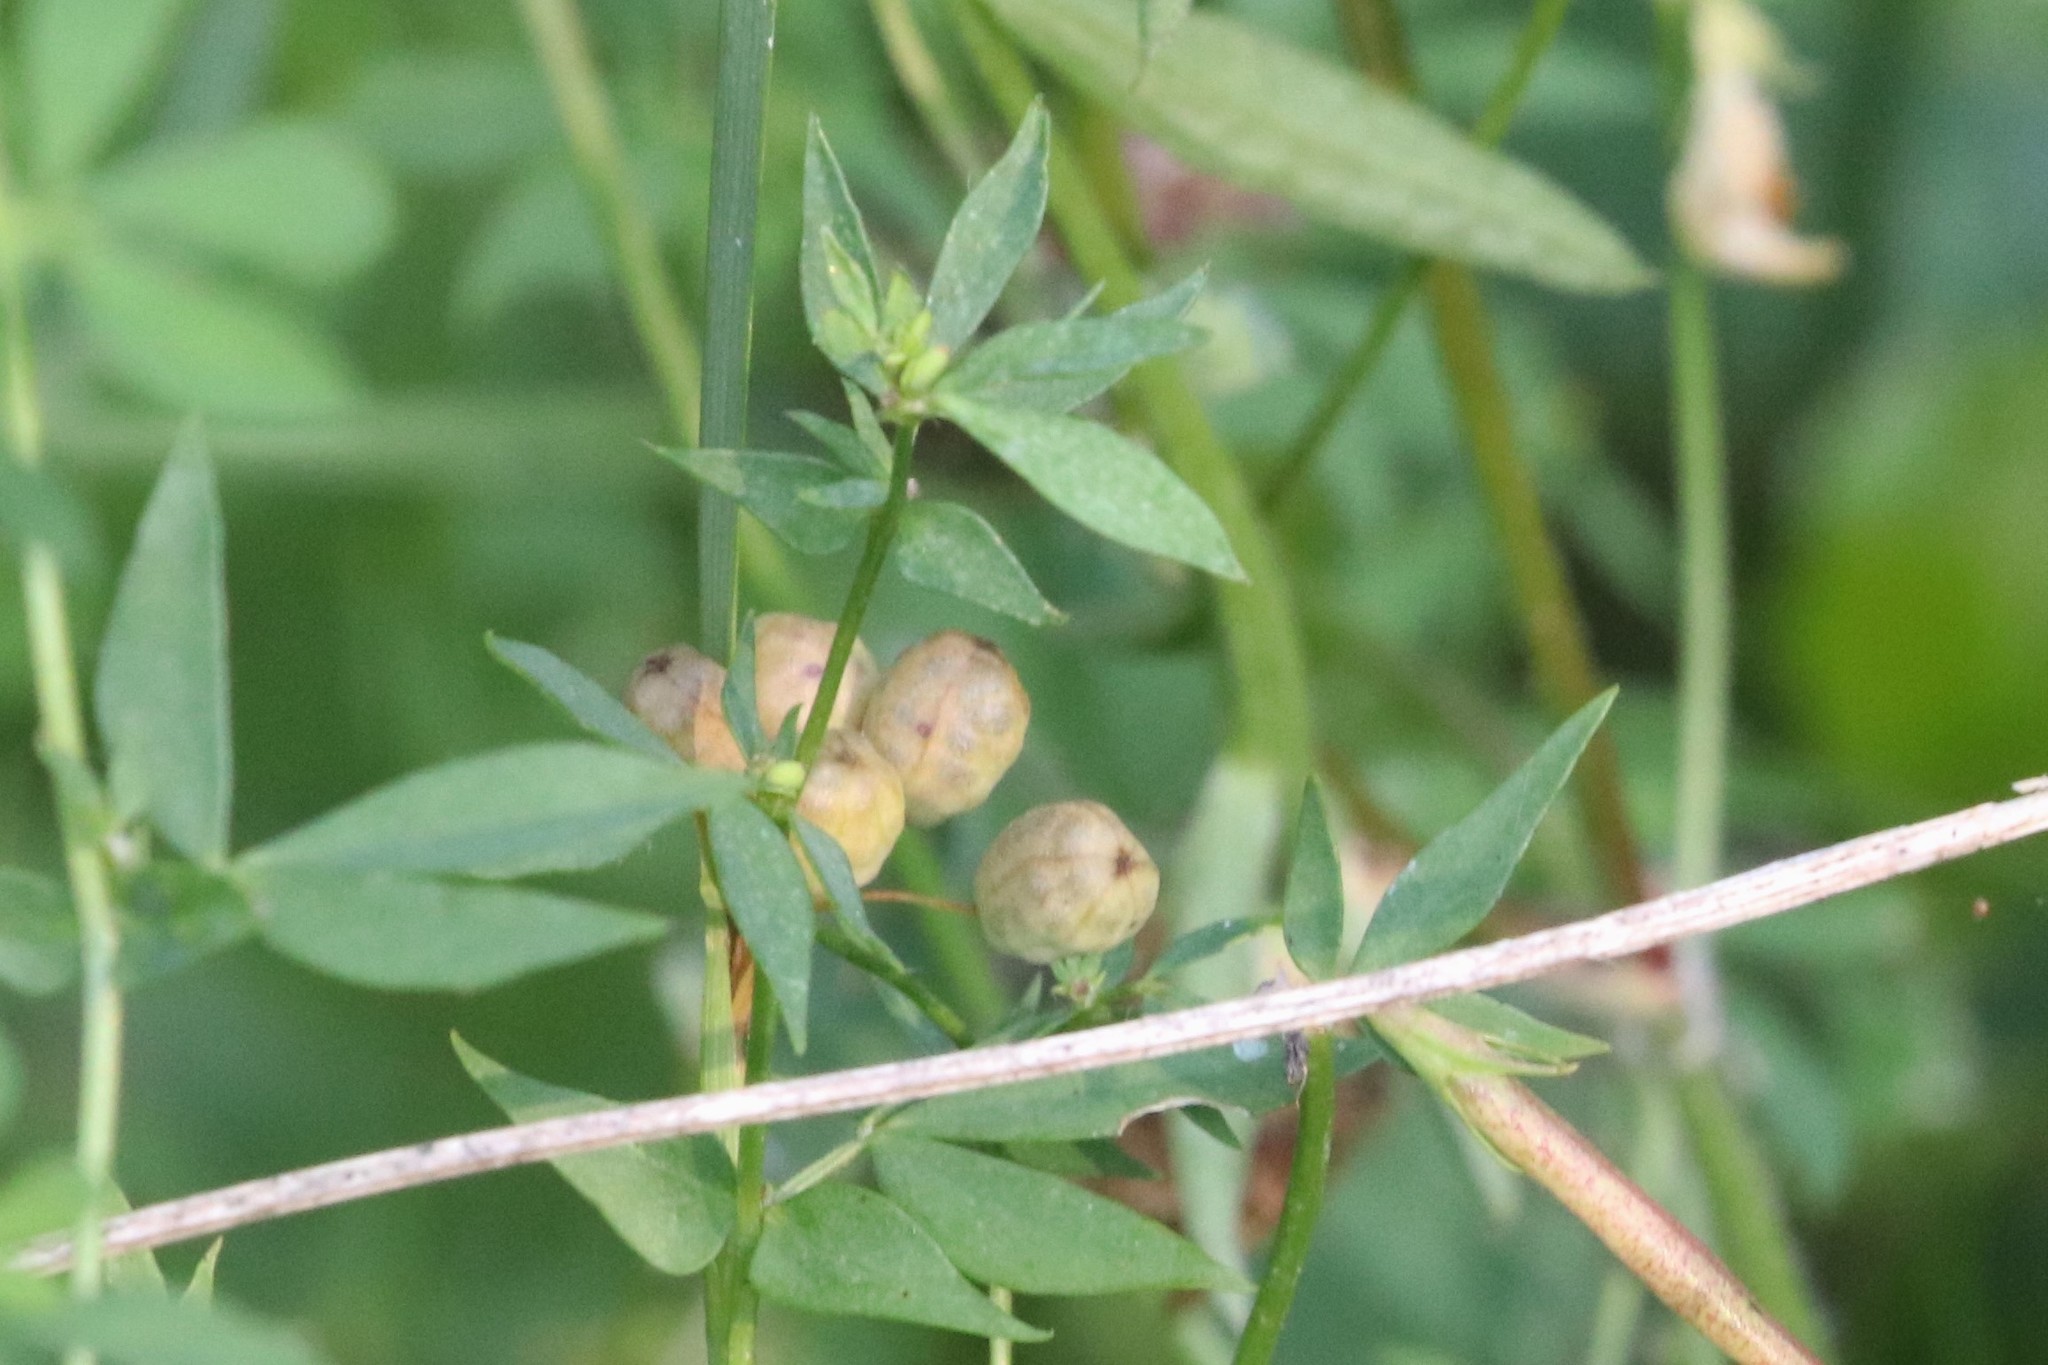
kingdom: Plantae
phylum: Tracheophyta
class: Magnoliopsida
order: Fabales
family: Fabaceae
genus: Lotus
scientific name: Lotus corniculatus
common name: Common bird's-foot-trefoil
